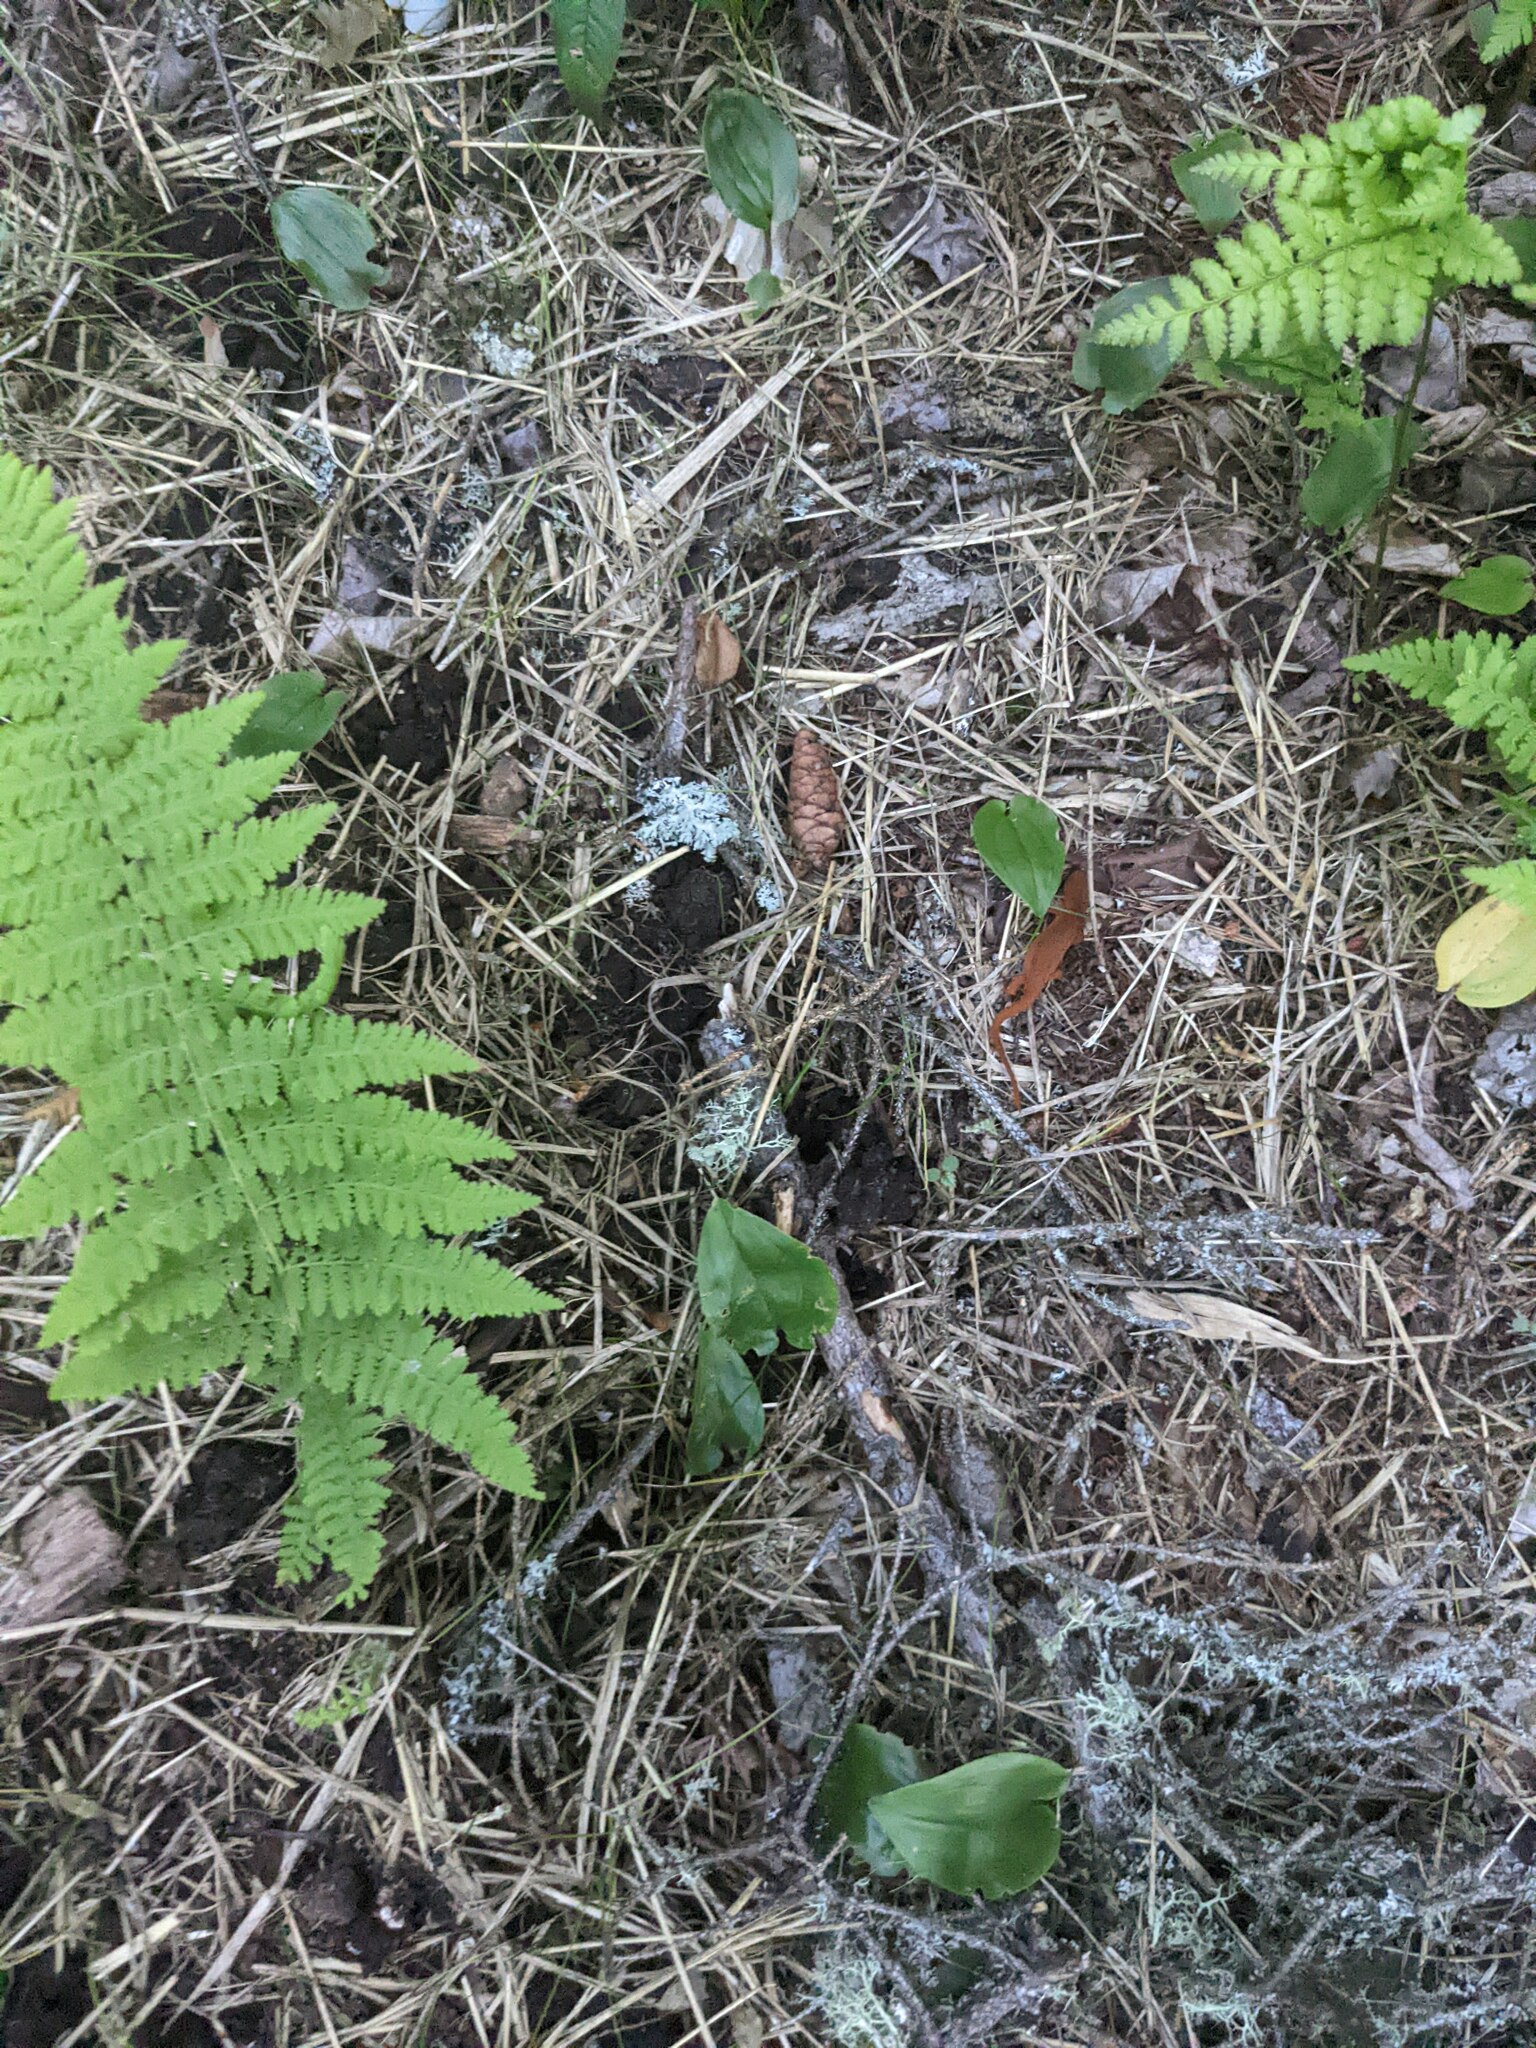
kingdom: Plantae
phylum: Tracheophyta
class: Liliopsida
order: Asparagales
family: Asparagaceae
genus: Maianthemum
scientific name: Maianthemum canadense
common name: False lily-of-the-valley
